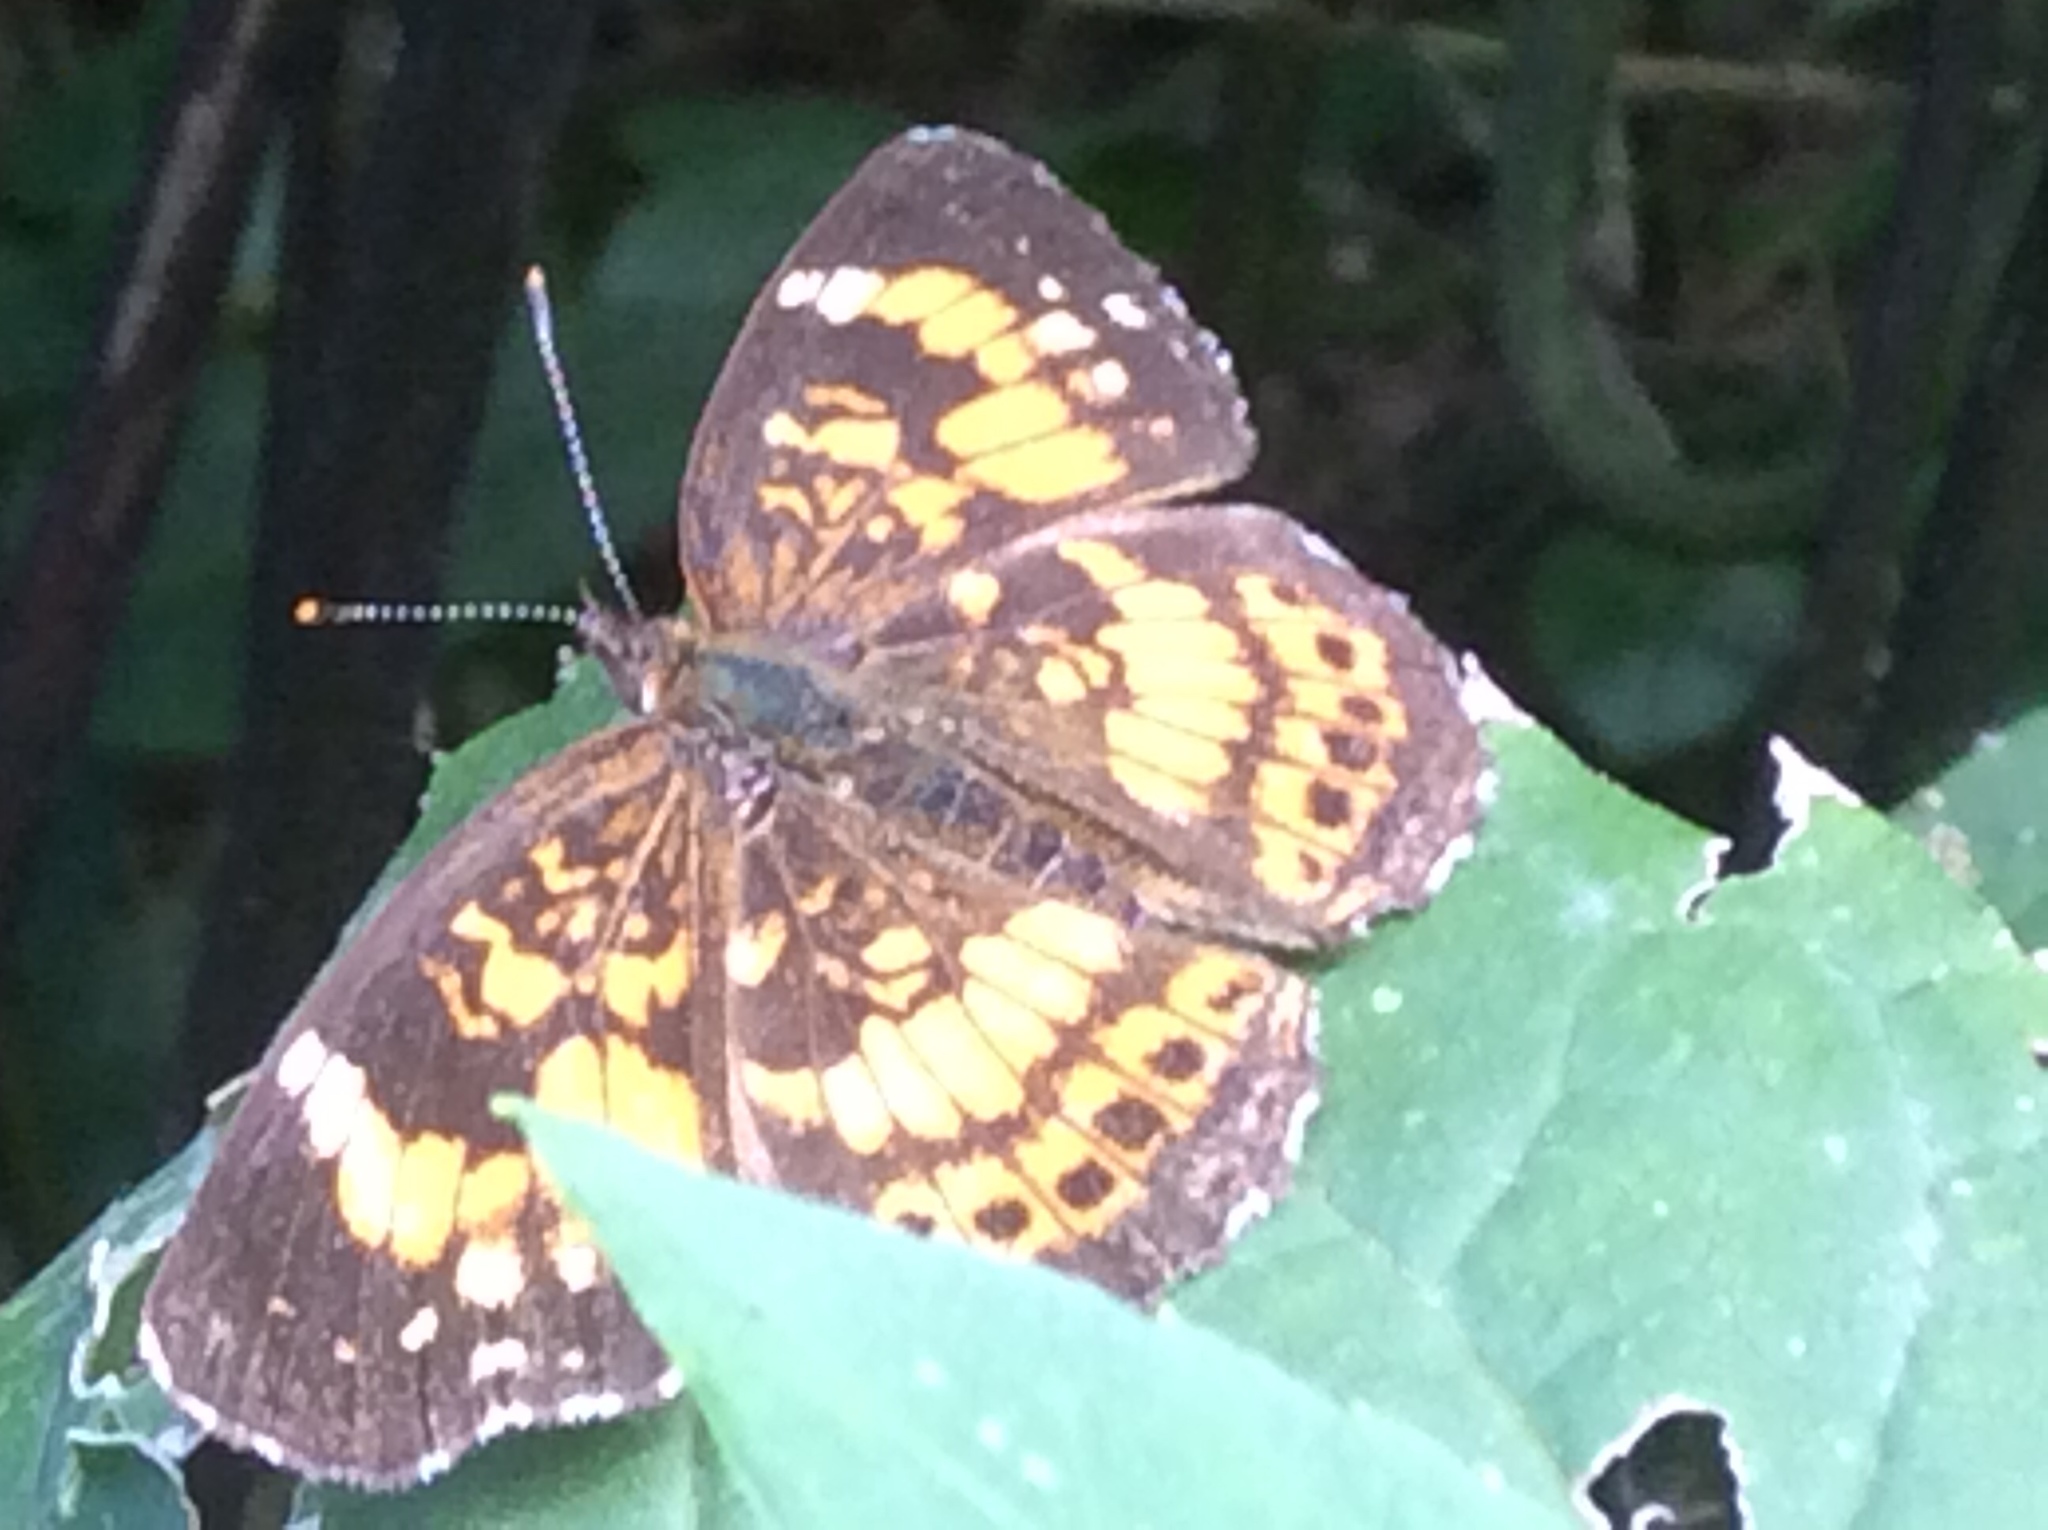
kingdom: Animalia
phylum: Arthropoda
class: Insecta
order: Lepidoptera
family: Nymphalidae
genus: Chlosyne
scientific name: Chlosyne nycteis
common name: Silvery checkerspot
